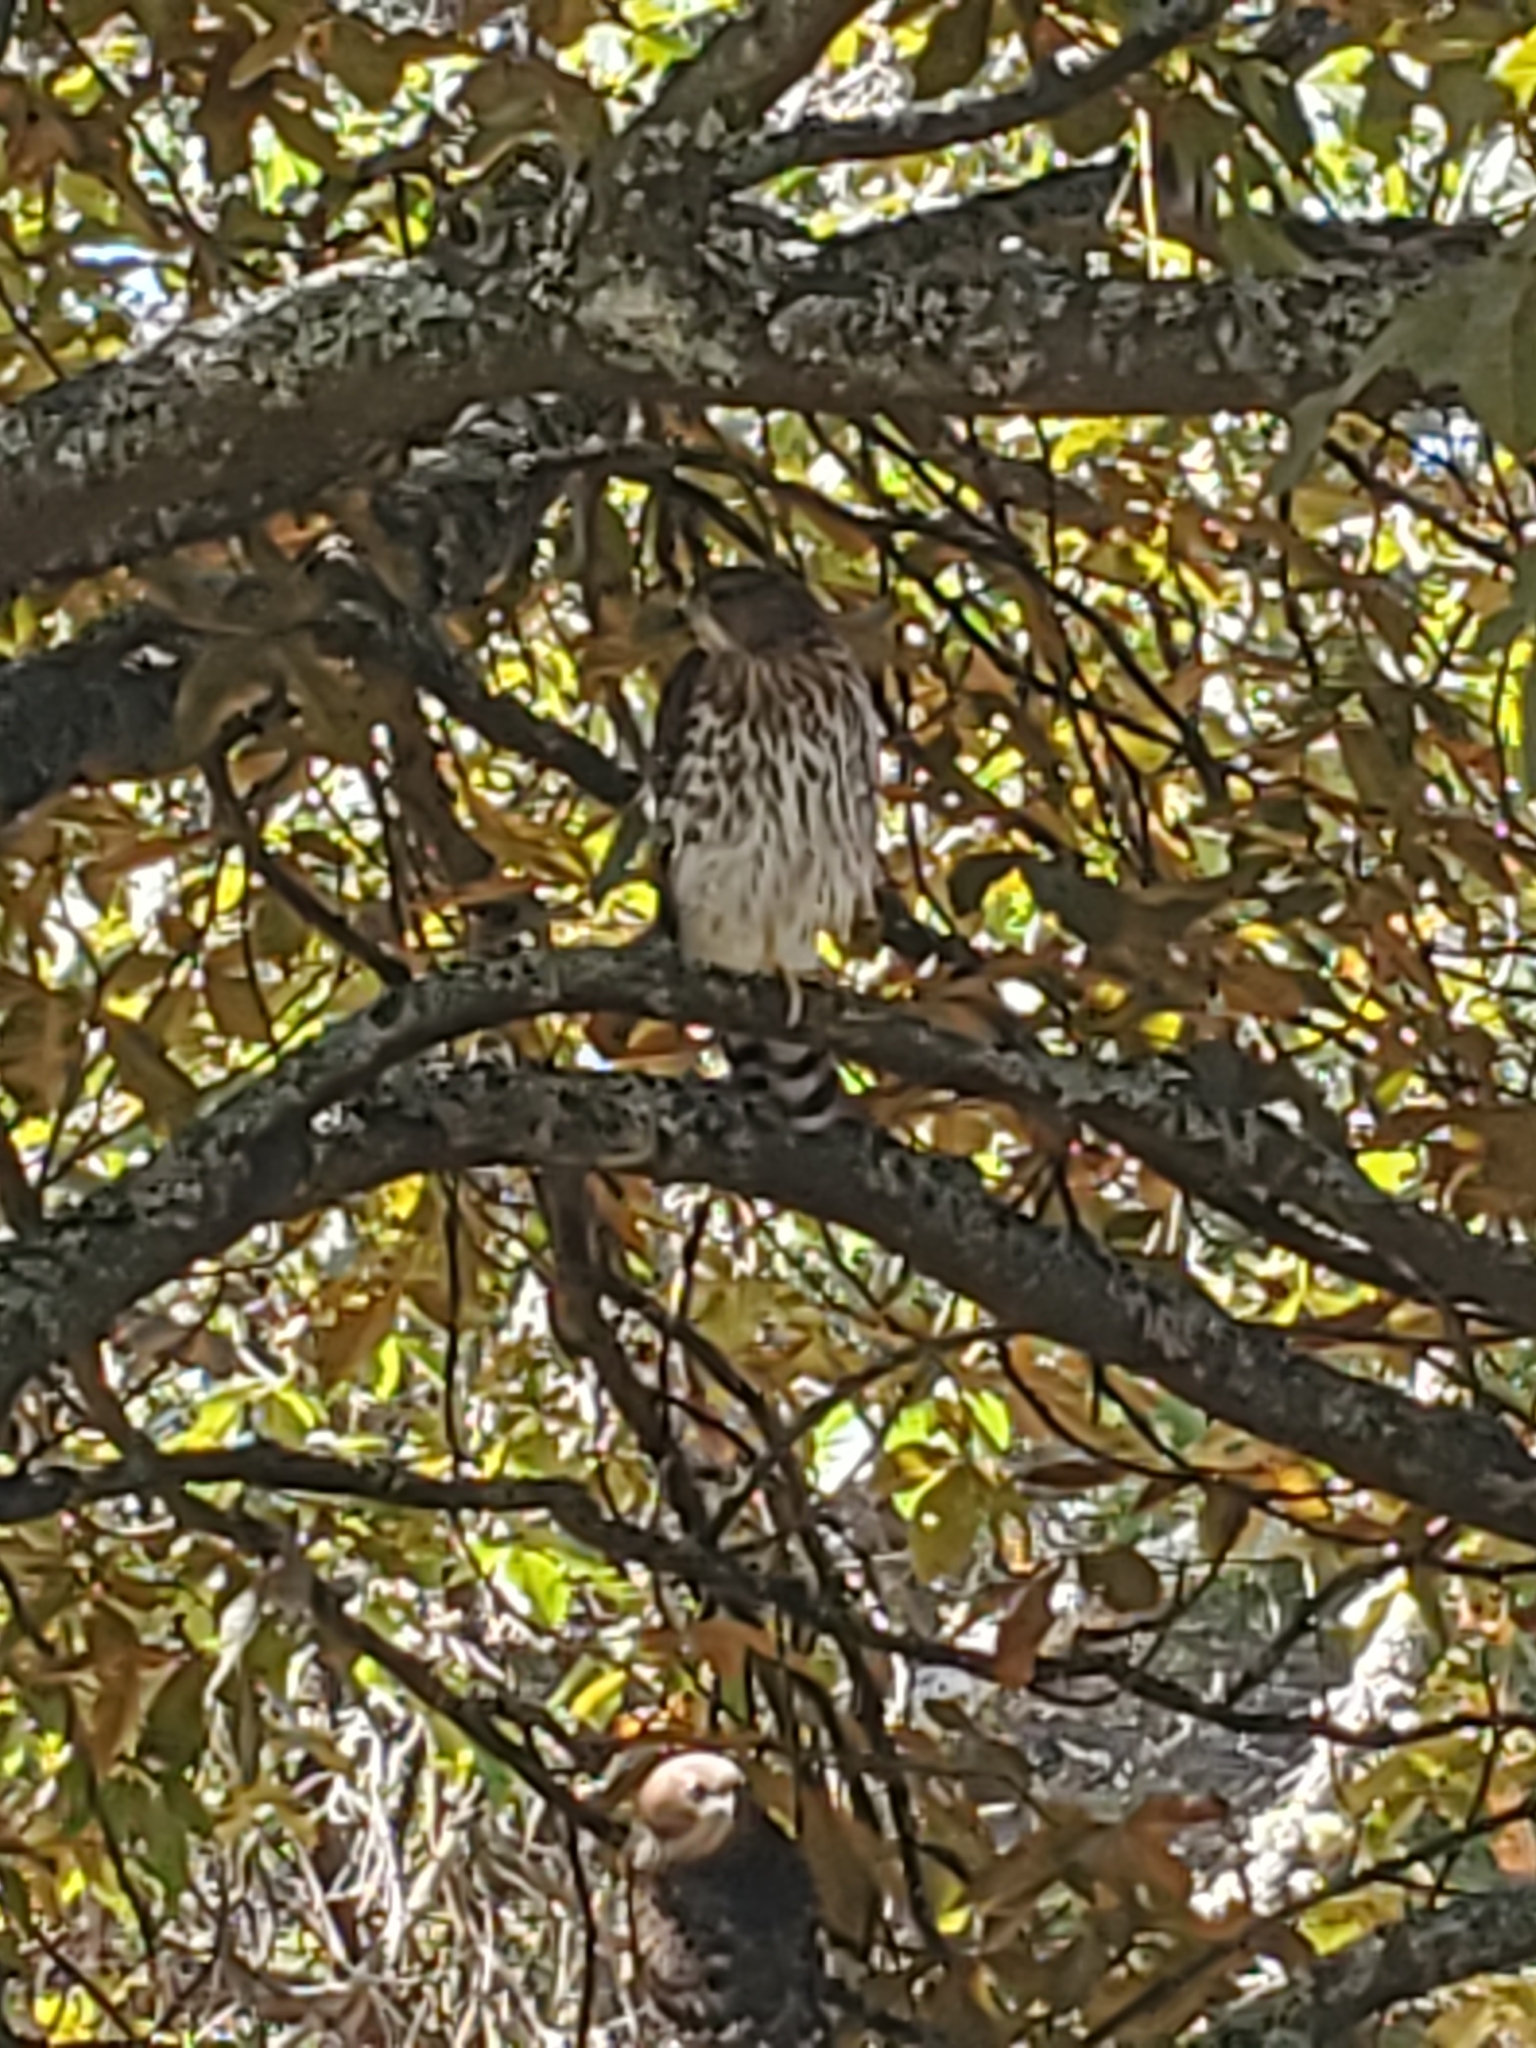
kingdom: Animalia
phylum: Chordata
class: Aves
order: Accipitriformes
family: Accipitridae
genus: Accipiter
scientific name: Accipiter cooperii
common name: Cooper's hawk
